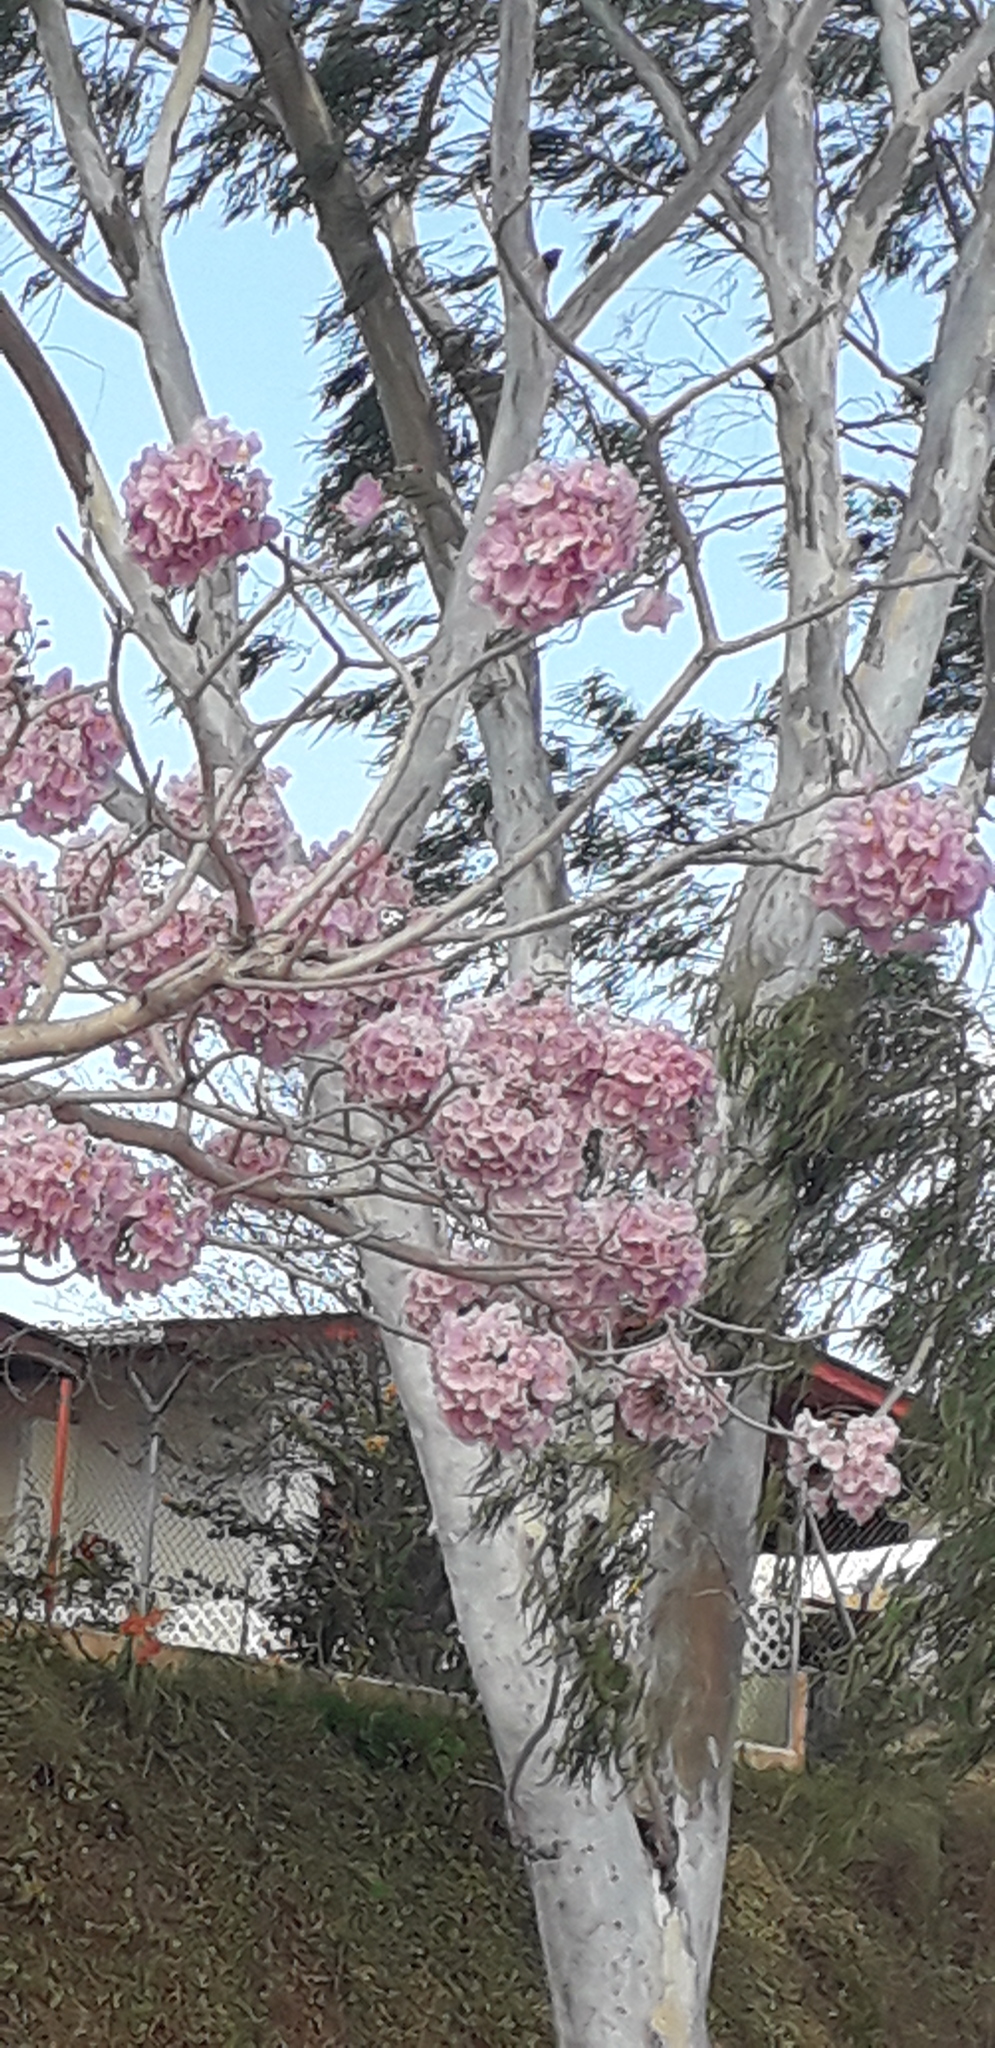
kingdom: Plantae
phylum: Tracheophyta
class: Magnoliopsida
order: Lamiales
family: Bignoniaceae
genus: Tabebuia
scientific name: Tabebuia rosea
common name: Pink poui
